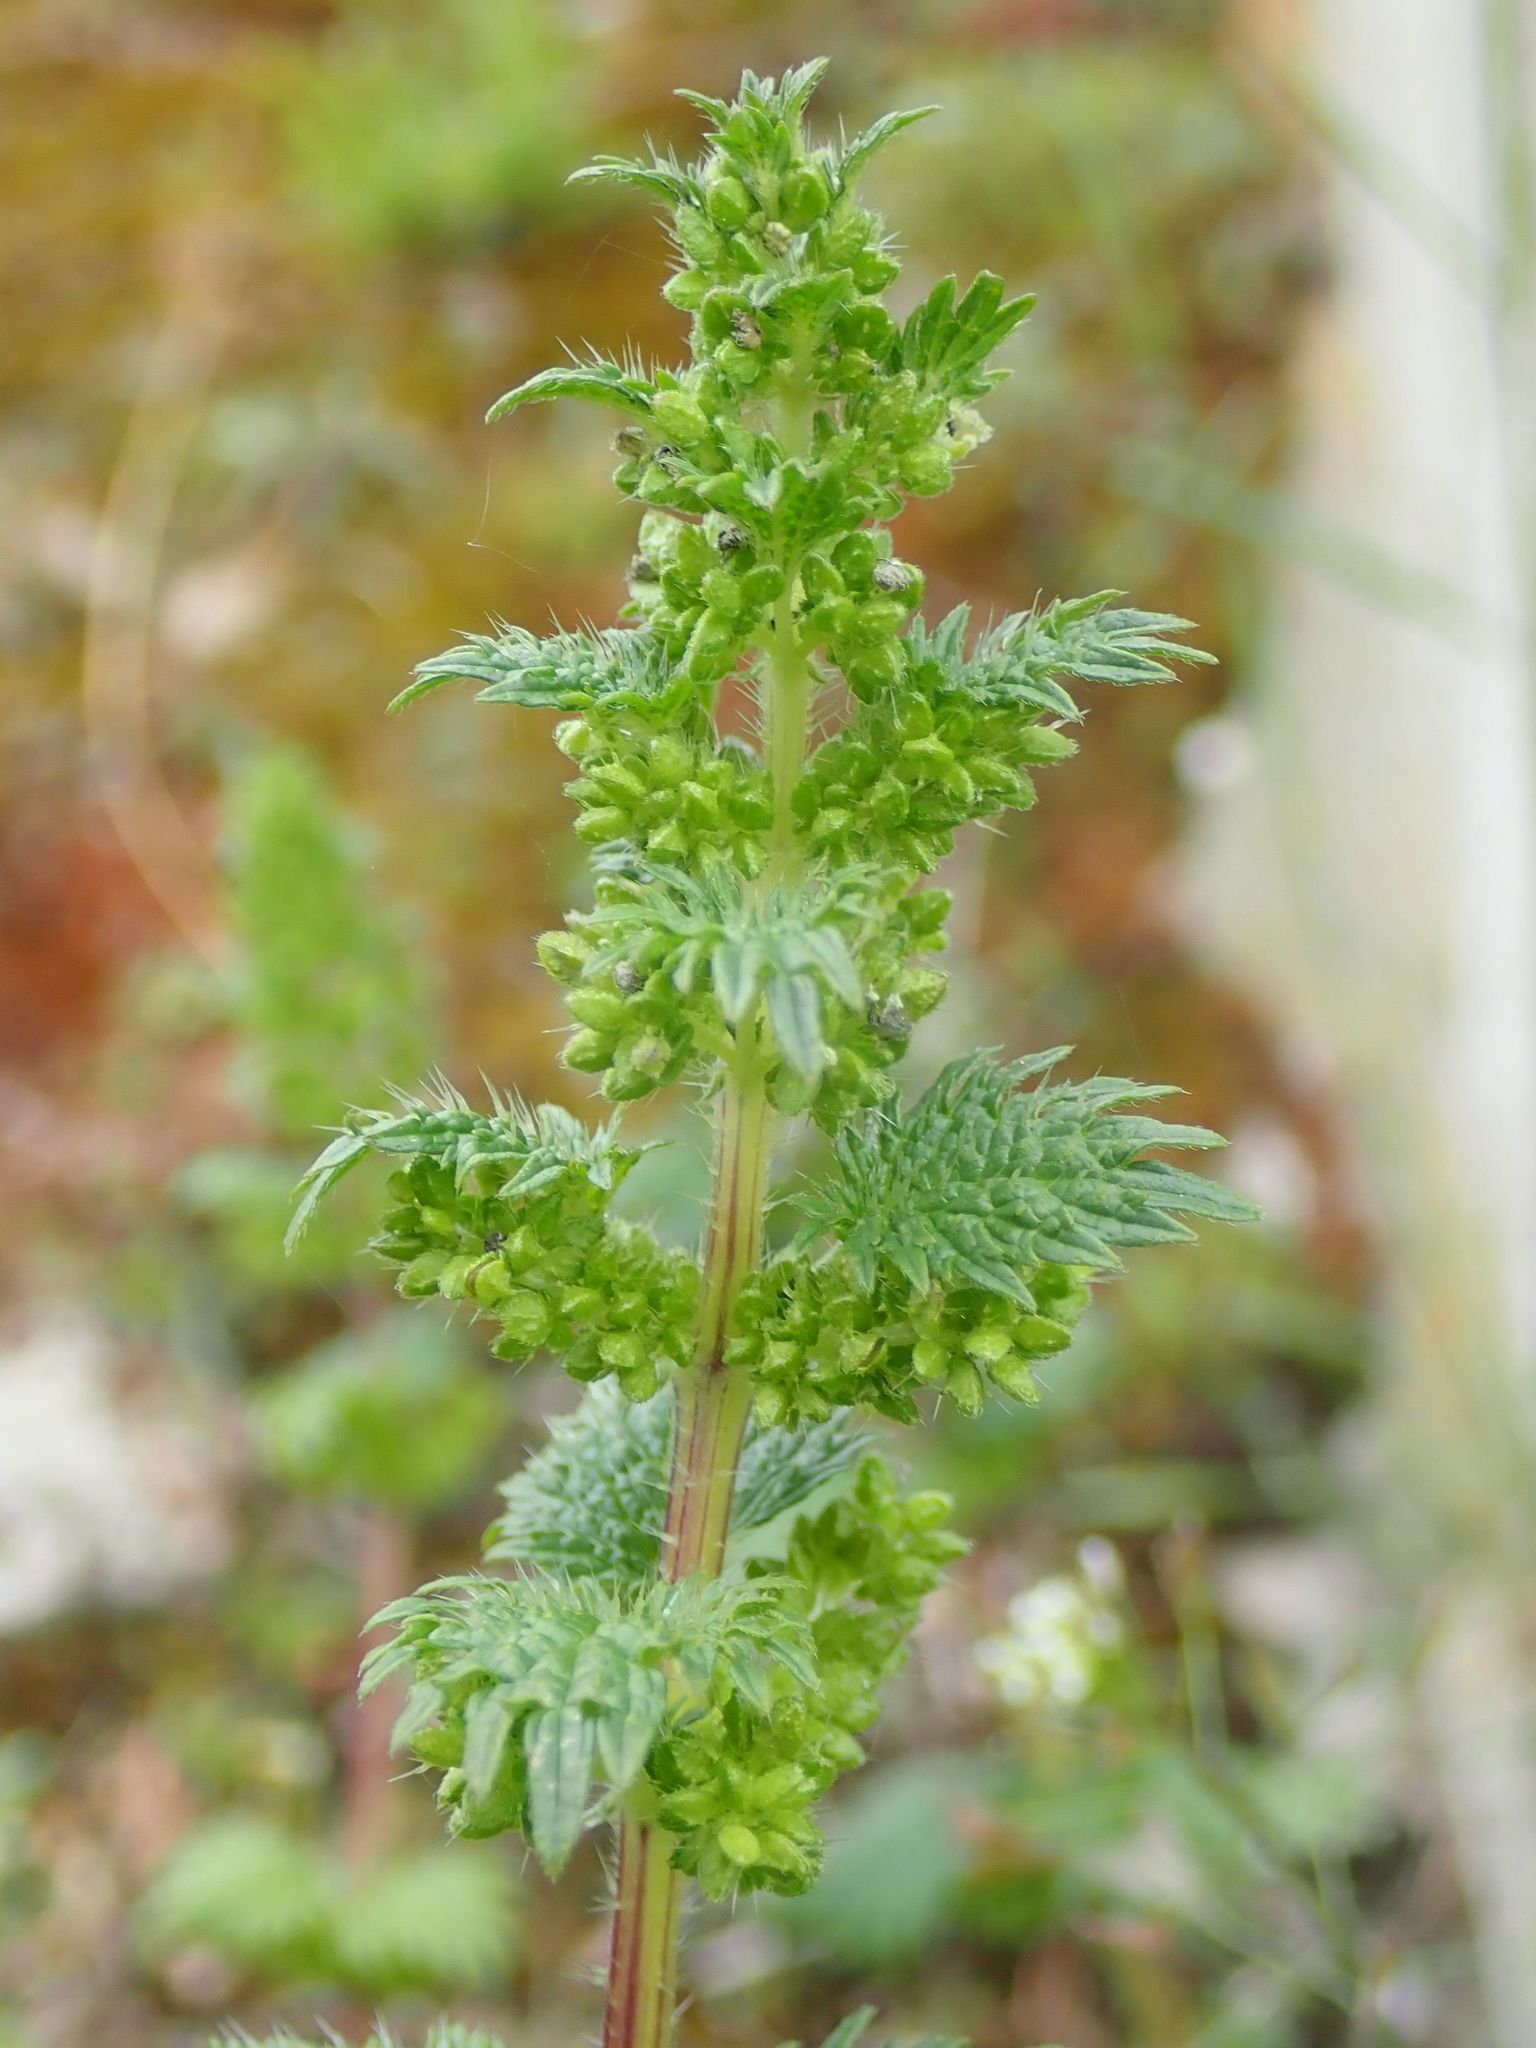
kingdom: Plantae
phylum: Tracheophyta
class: Magnoliopsida
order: Rosales
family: Urticaceae
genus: Urtica
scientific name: Urtica urens
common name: Dwarf nettle
